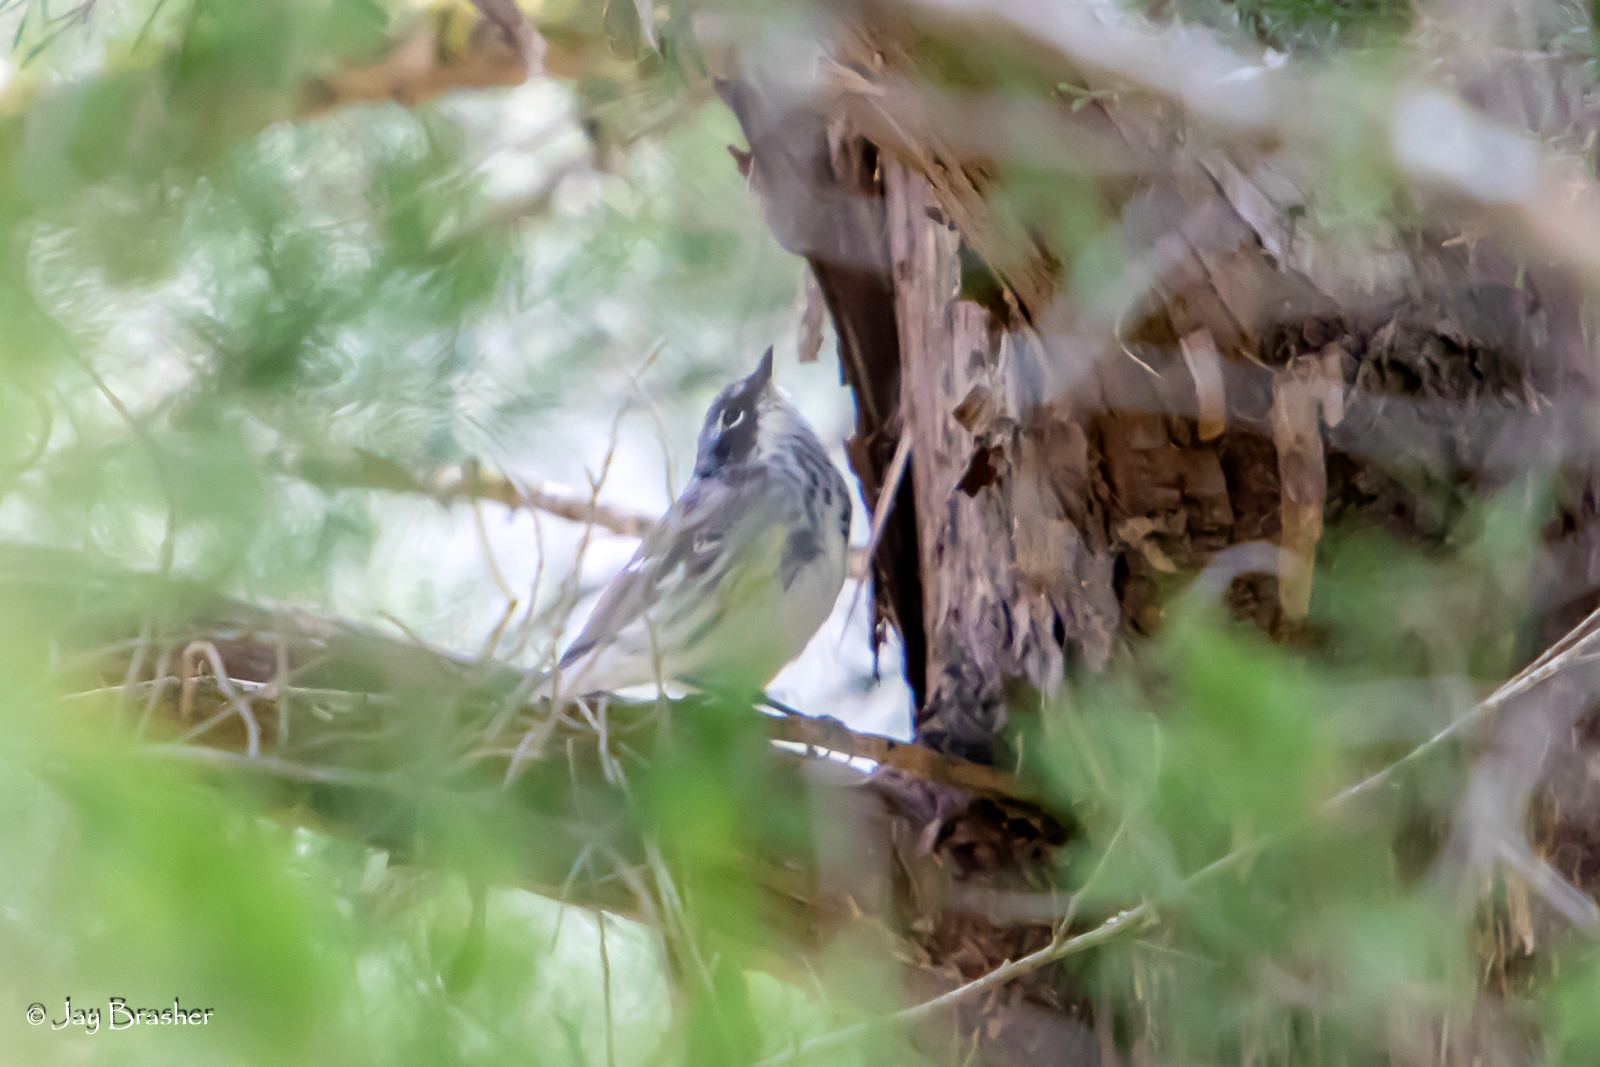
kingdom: Animalia
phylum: Chordata
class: Aves
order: Passeriformes
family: Parulidae
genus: Setophaga
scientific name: Setophaga coronata
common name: Myrtle warbler
